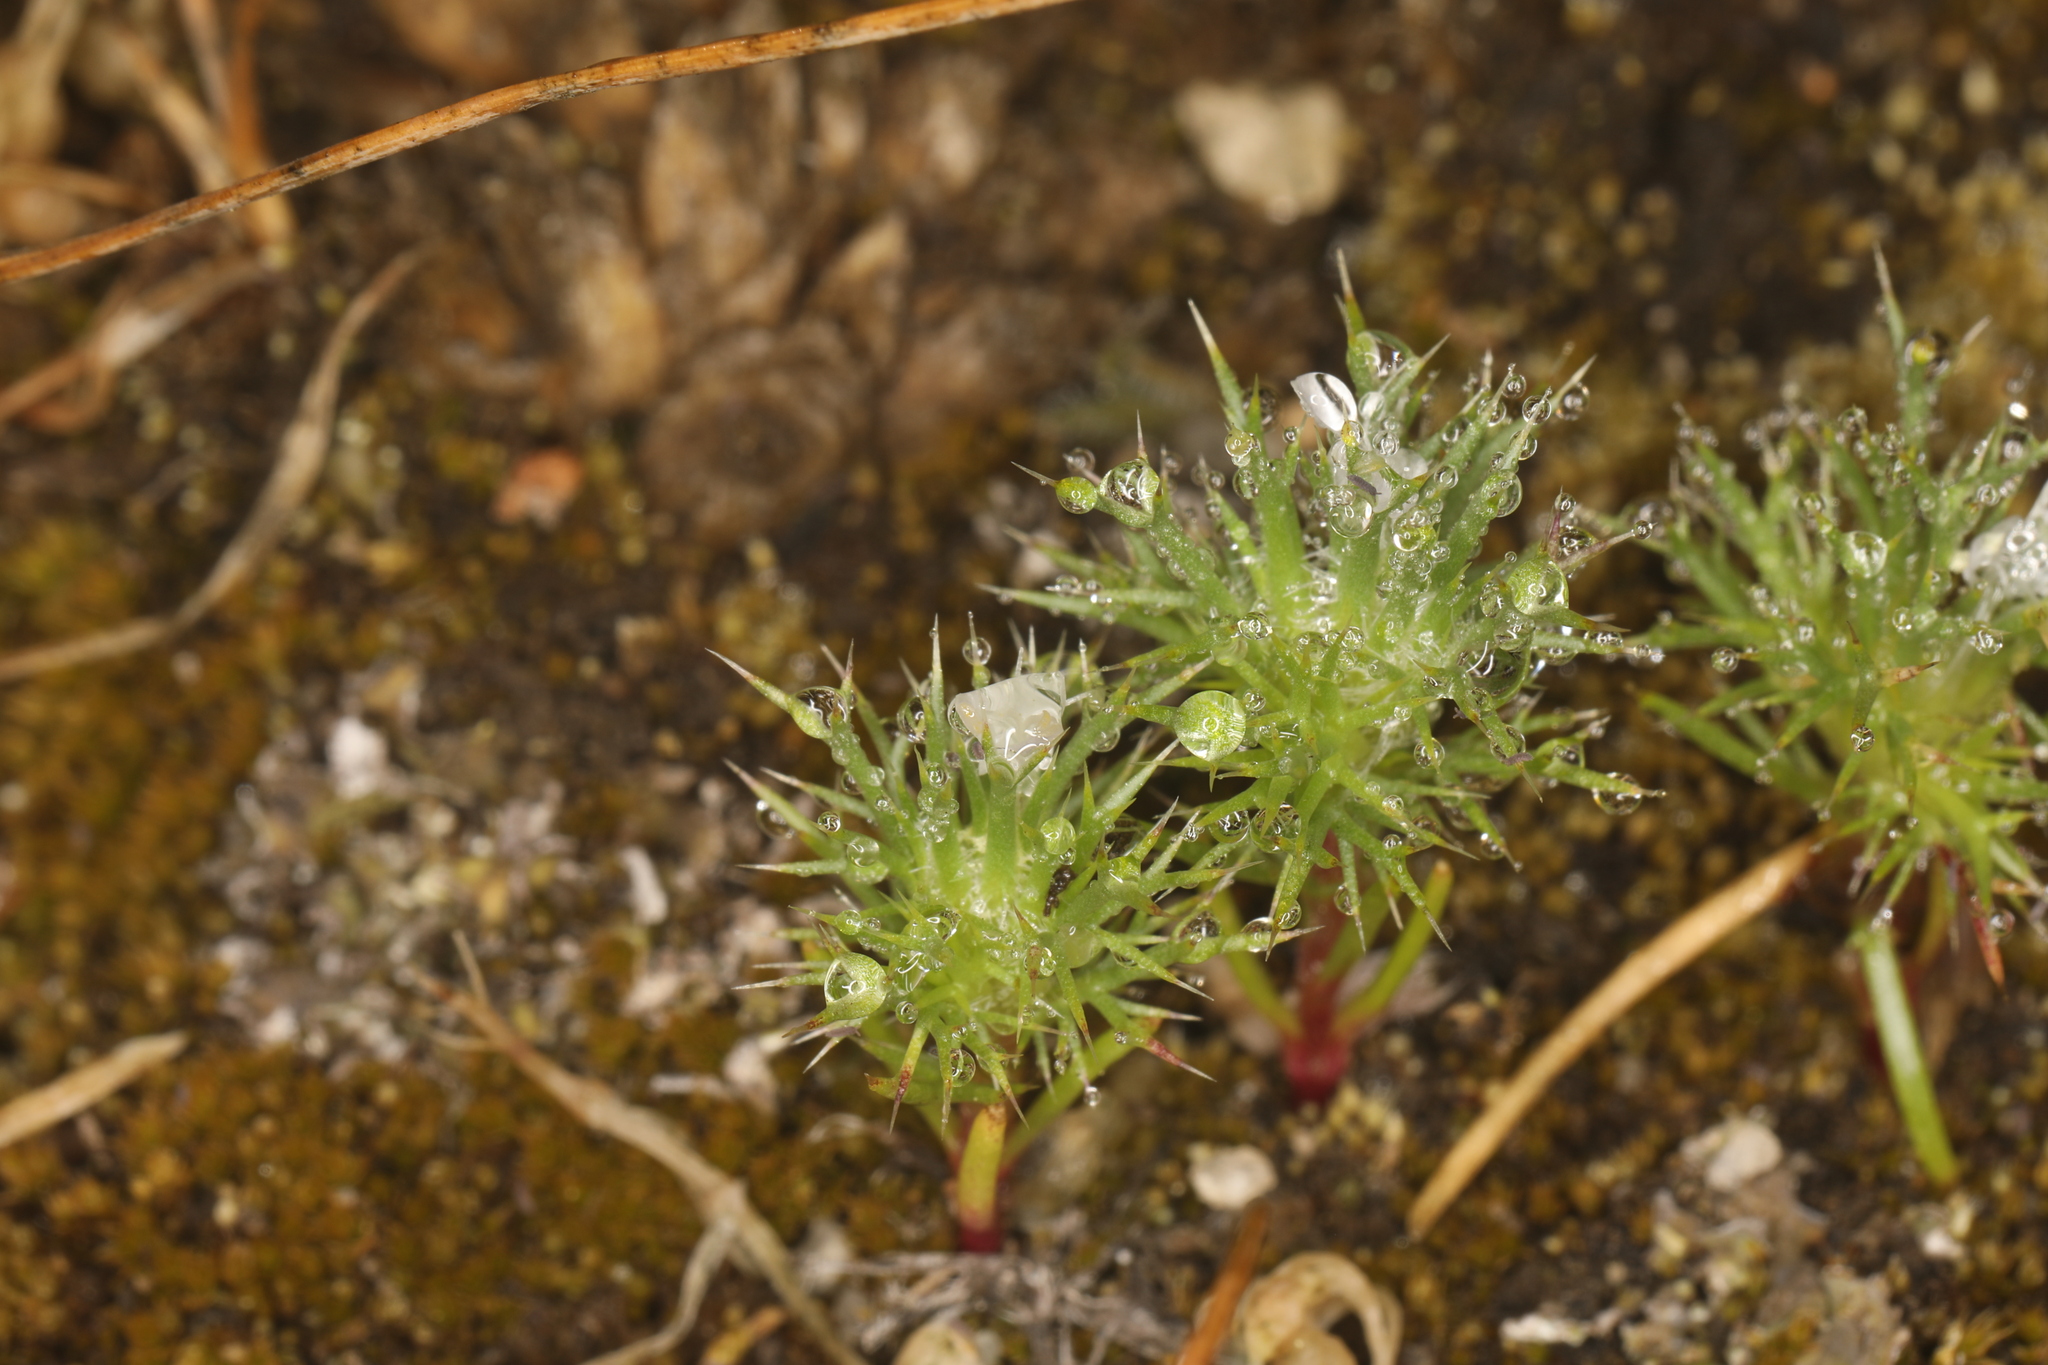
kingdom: Plantae
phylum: Tracheophyta
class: Magnoliopsida
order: Ericales
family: Polemoniaceae
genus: Navarretia
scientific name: Navarretia intertexta
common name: Needle-leaved navarretia
